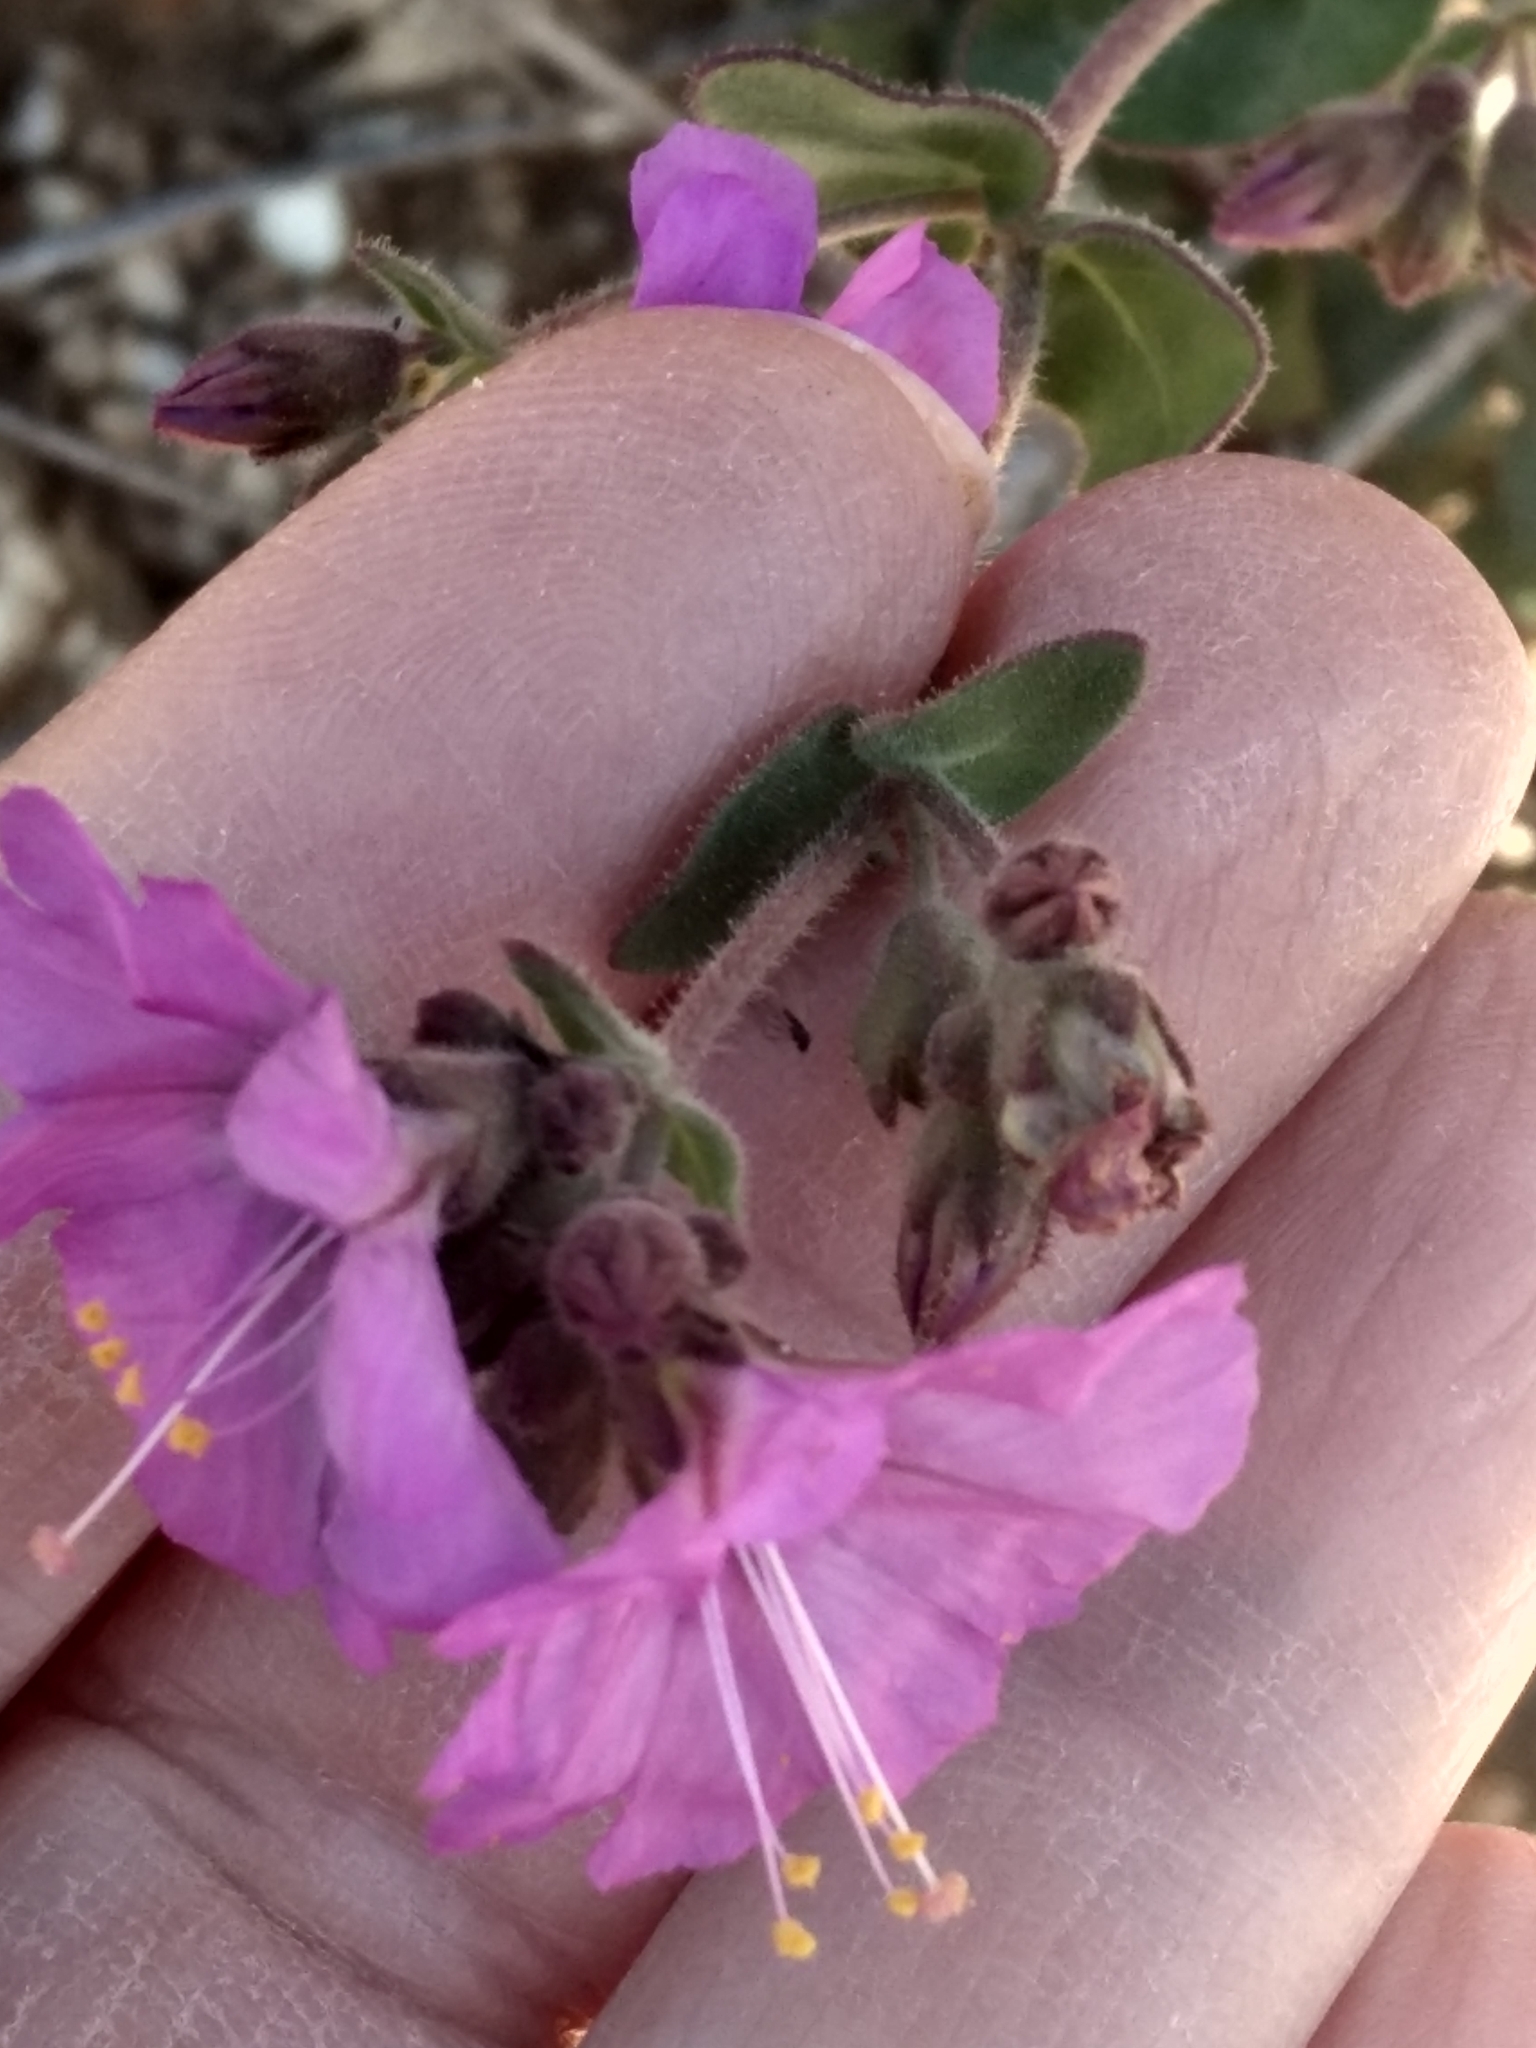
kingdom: Plantae
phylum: Tracheophyta
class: Magnoliopsida
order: Caryophyllales
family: Nyctaginaceae
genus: Mirabilis
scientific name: Mirabilis laevis
